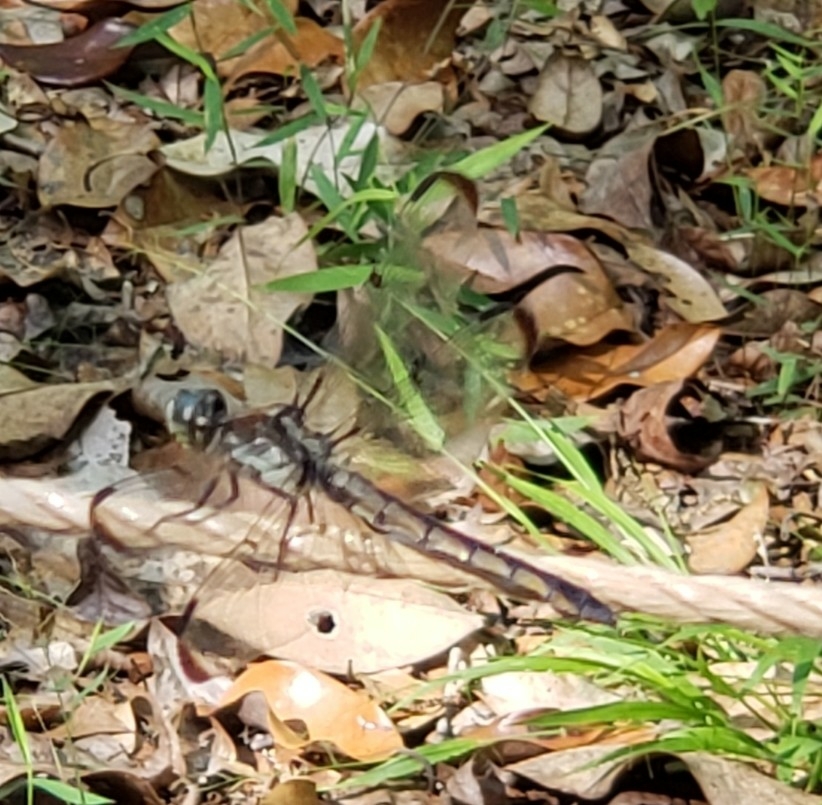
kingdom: Animalia
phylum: Arthropoda
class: Insecta
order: Odonata
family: Libellulidae
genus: Libellula
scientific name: Libellula vibrans
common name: Great blue skimmer
